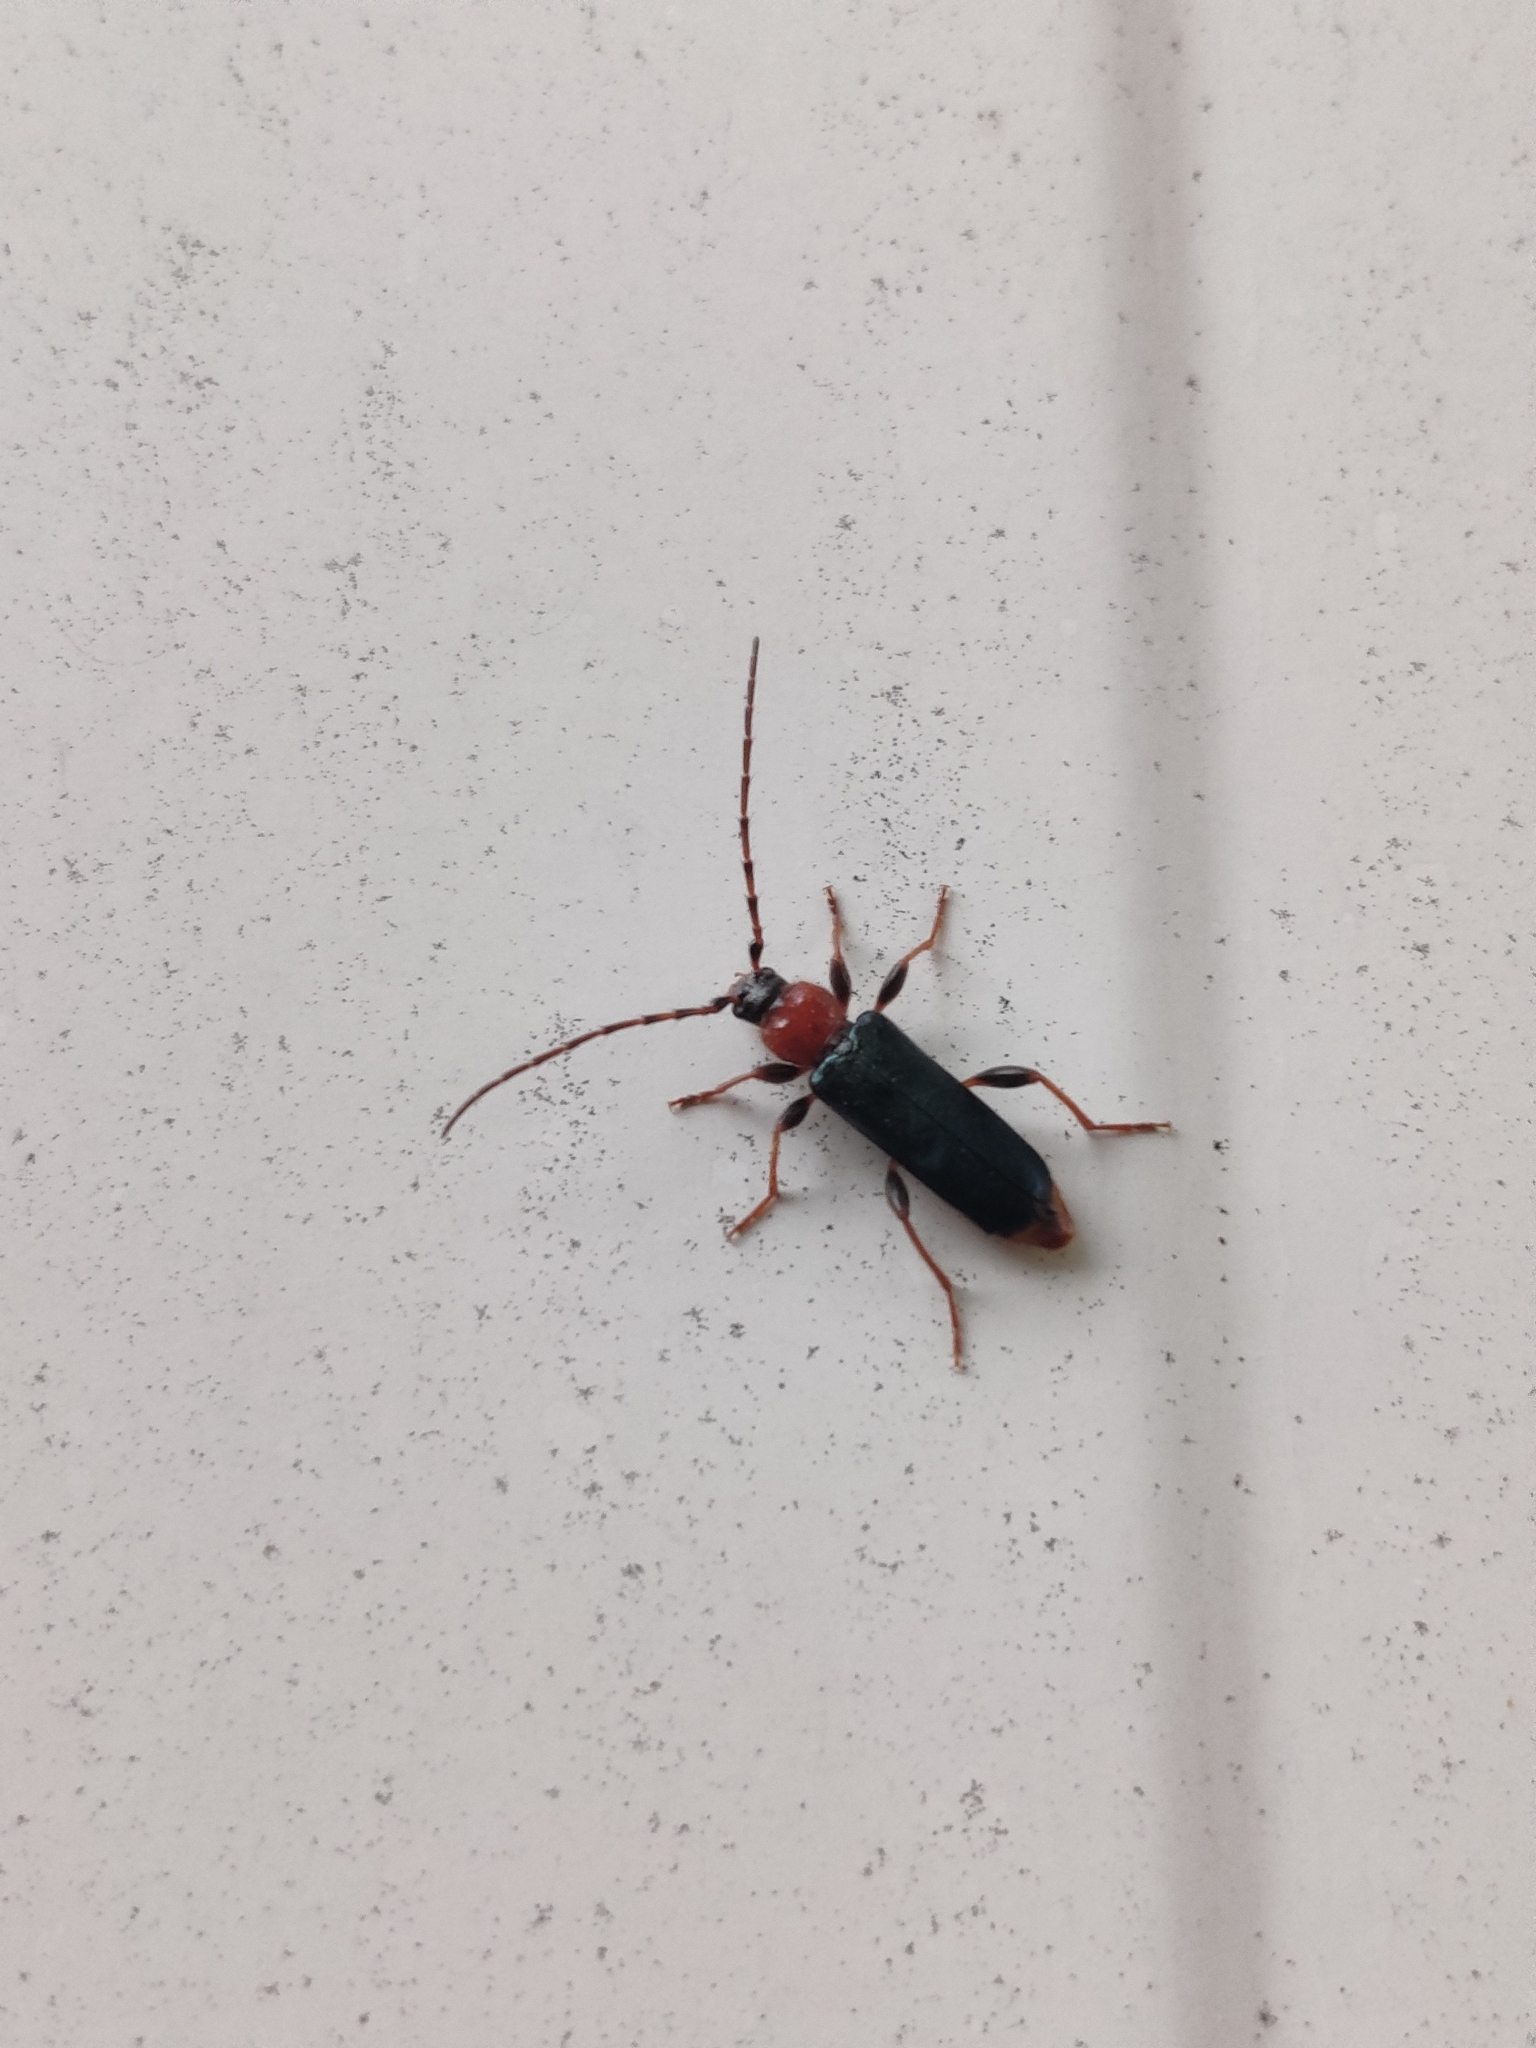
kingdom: Animalia
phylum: Arthropoda
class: Insecta
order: Coleoptera
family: Cerambycidae
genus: Phymatodes
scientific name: Phymatodes testaceus
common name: Long-horned beetle
